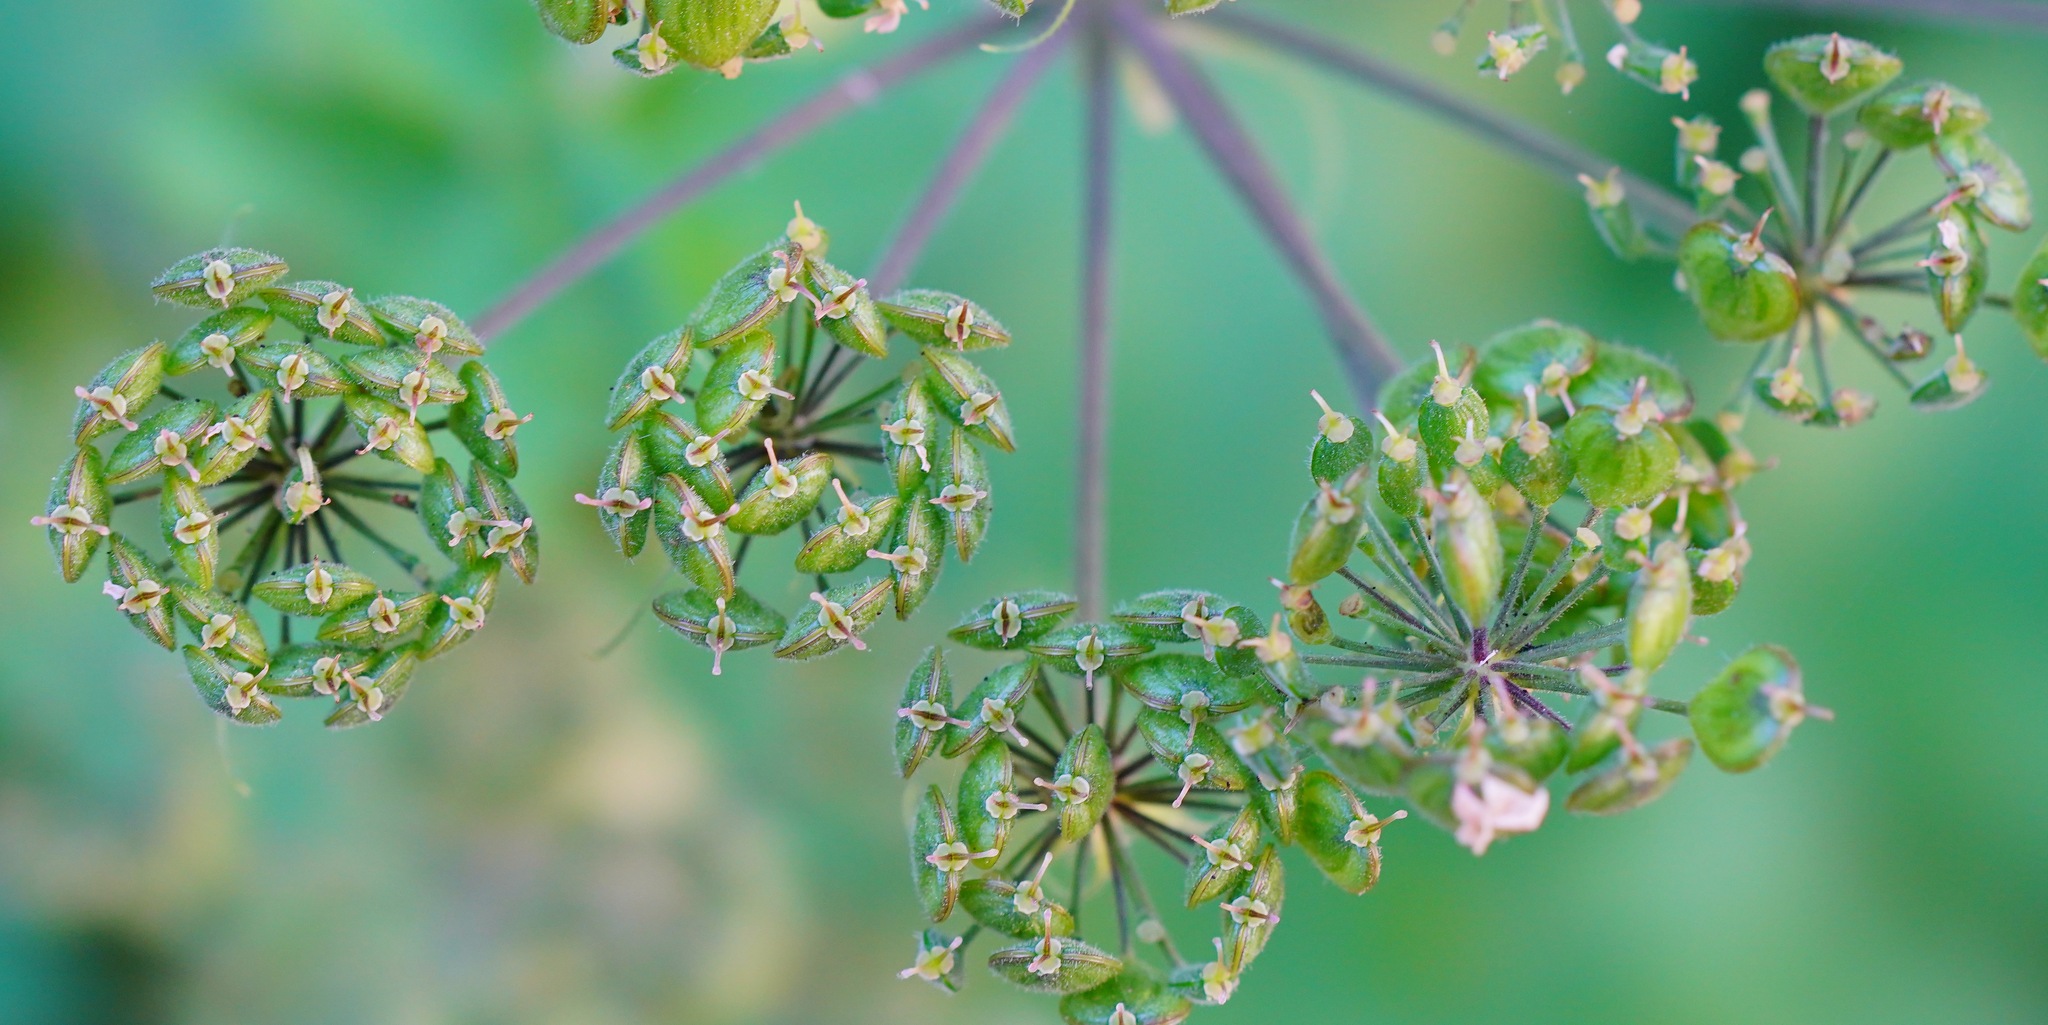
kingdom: Plantae
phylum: Tracheophyta
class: Magnoliopsida
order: Apiales
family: Apiaceae
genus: Heracleum
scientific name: Heracleum maximum
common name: American cow parsnip
